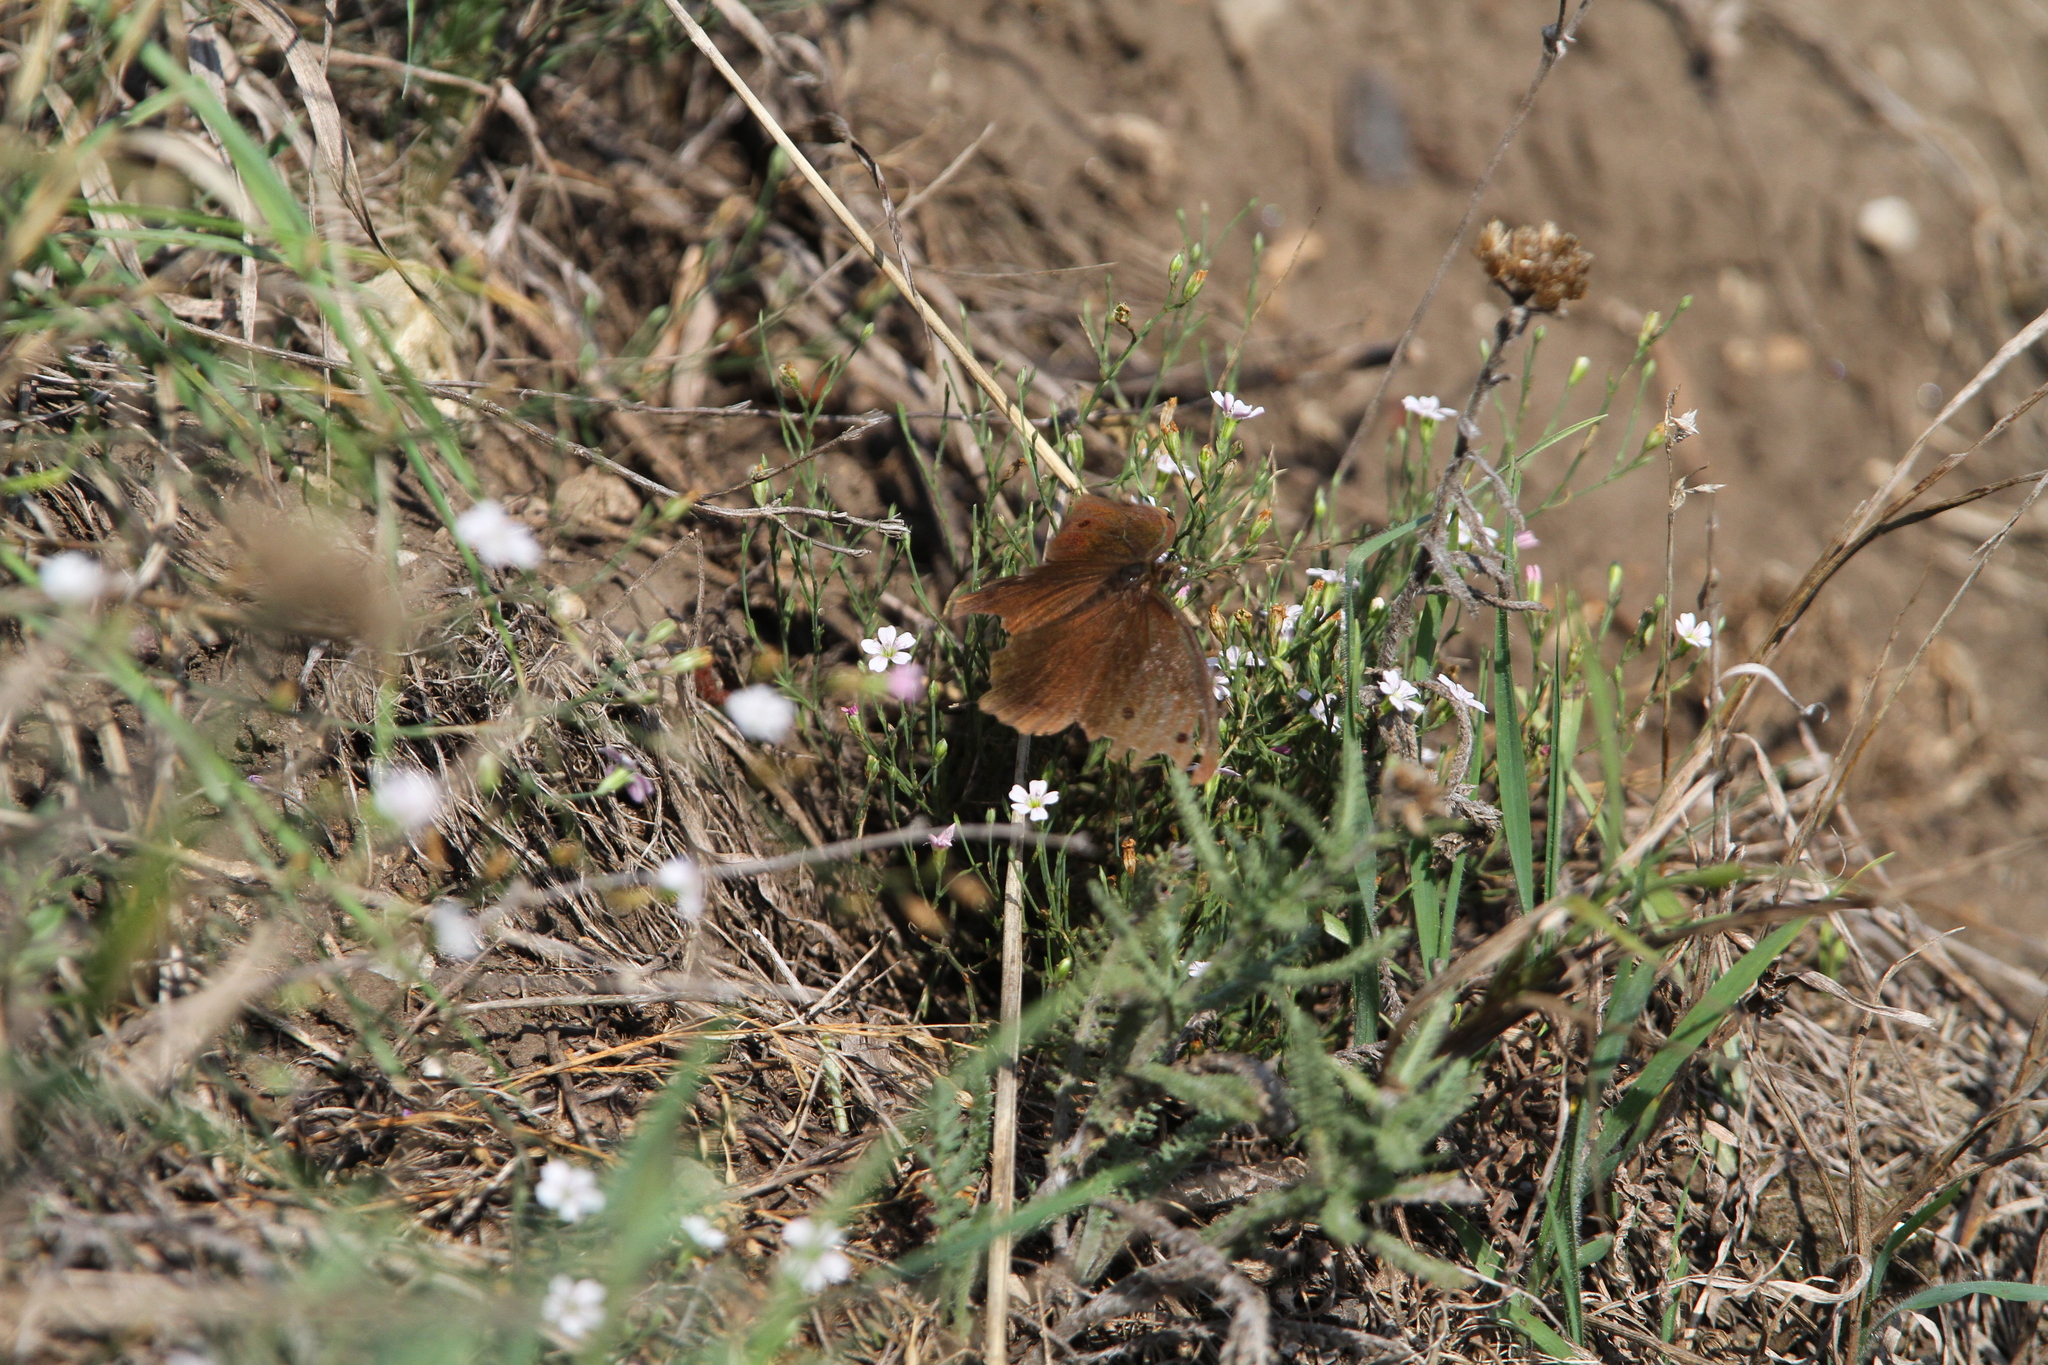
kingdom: Animalia
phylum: Arthropoda
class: Insecta
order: Lepidoptera
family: Nymphalidae
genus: Minois
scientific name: Minois dryas
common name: Dryad
